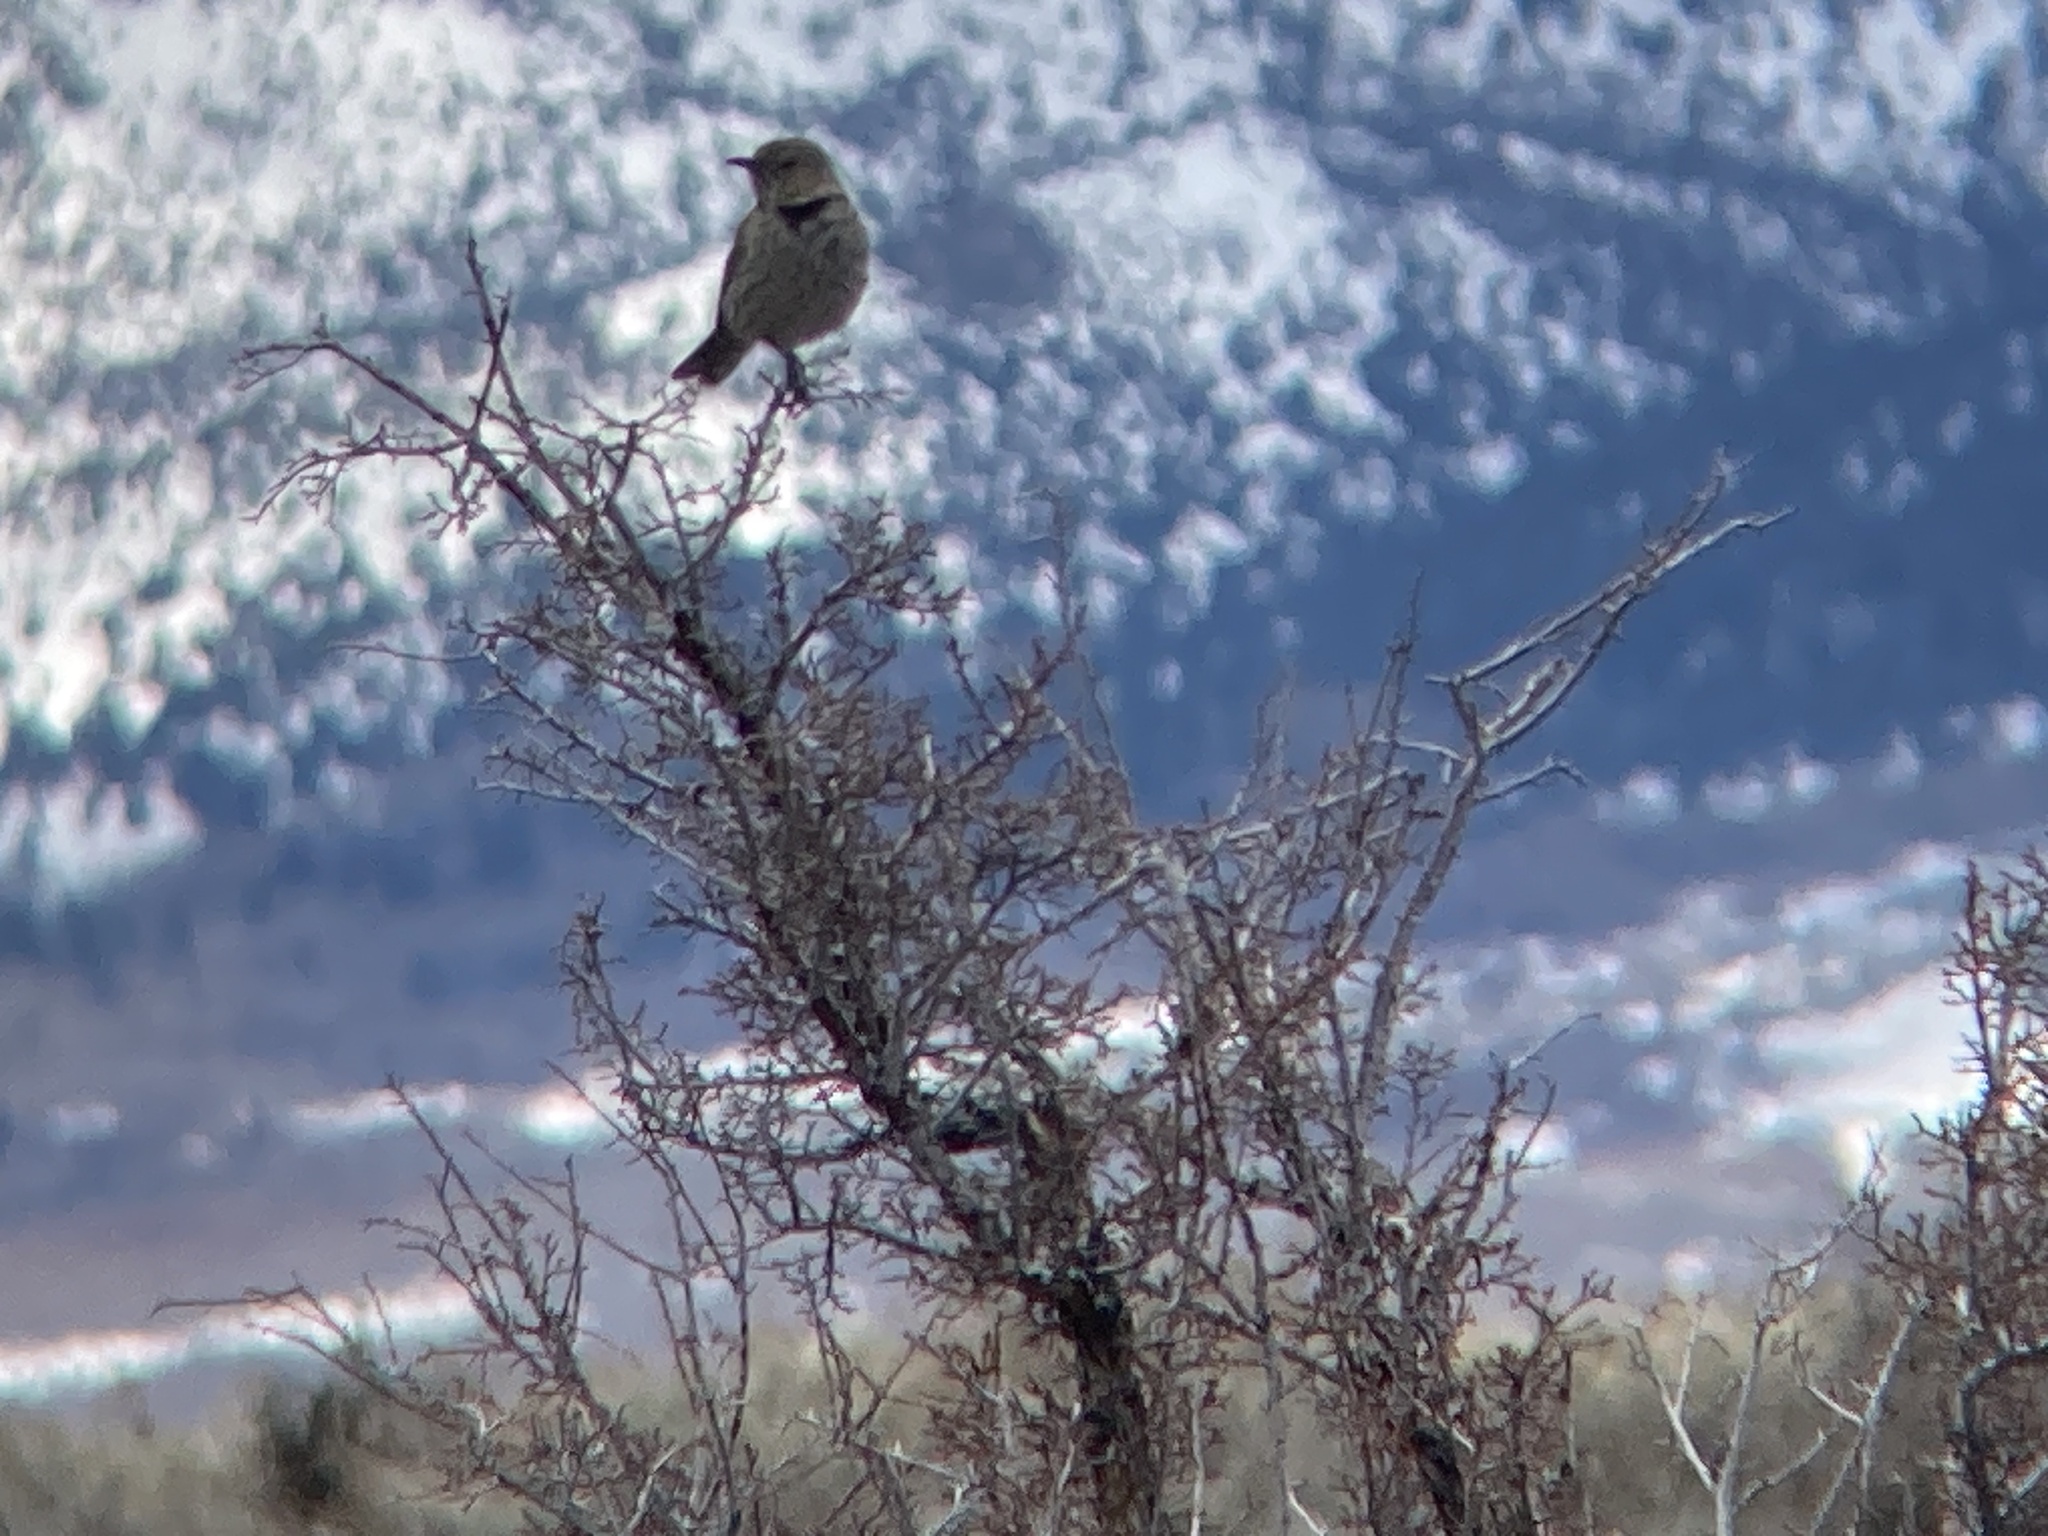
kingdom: Animalia
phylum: Chordata
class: Aves
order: Passeriformes
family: Mimidae
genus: Oreoscoptes
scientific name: Oreoscoptes montanus
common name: Sage thrasher
